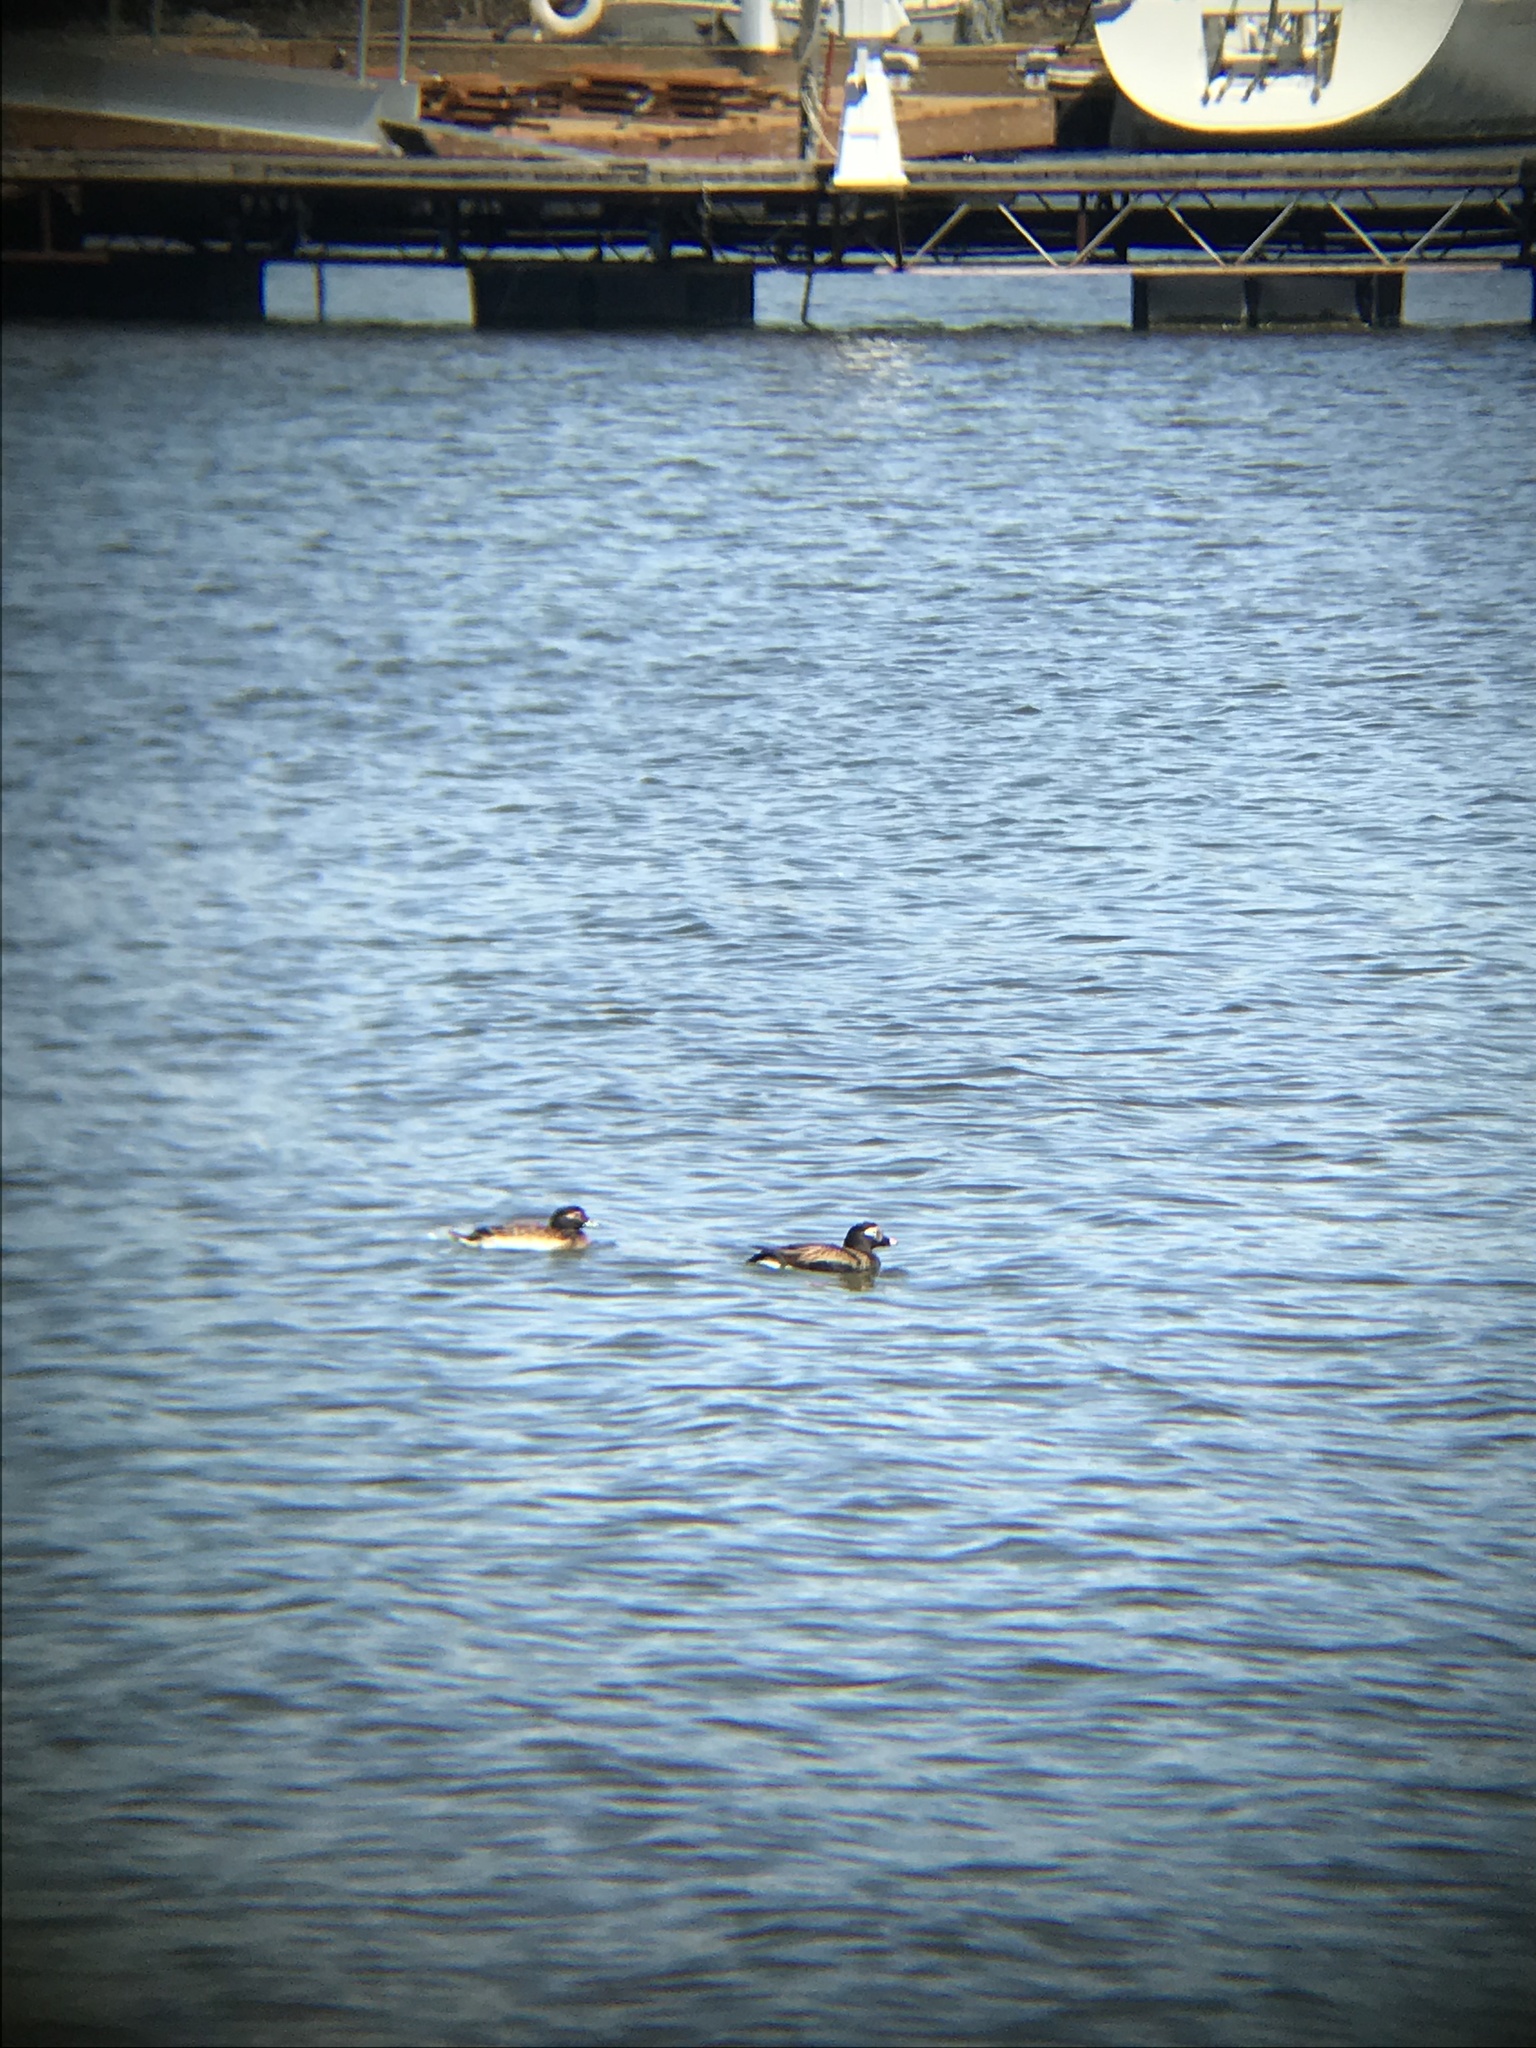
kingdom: Animalia
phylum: Chordata
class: Aves
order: Anseriformes
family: Anatidae
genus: Clangula
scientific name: Clangula hyemalis
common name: Long-tailed duck
